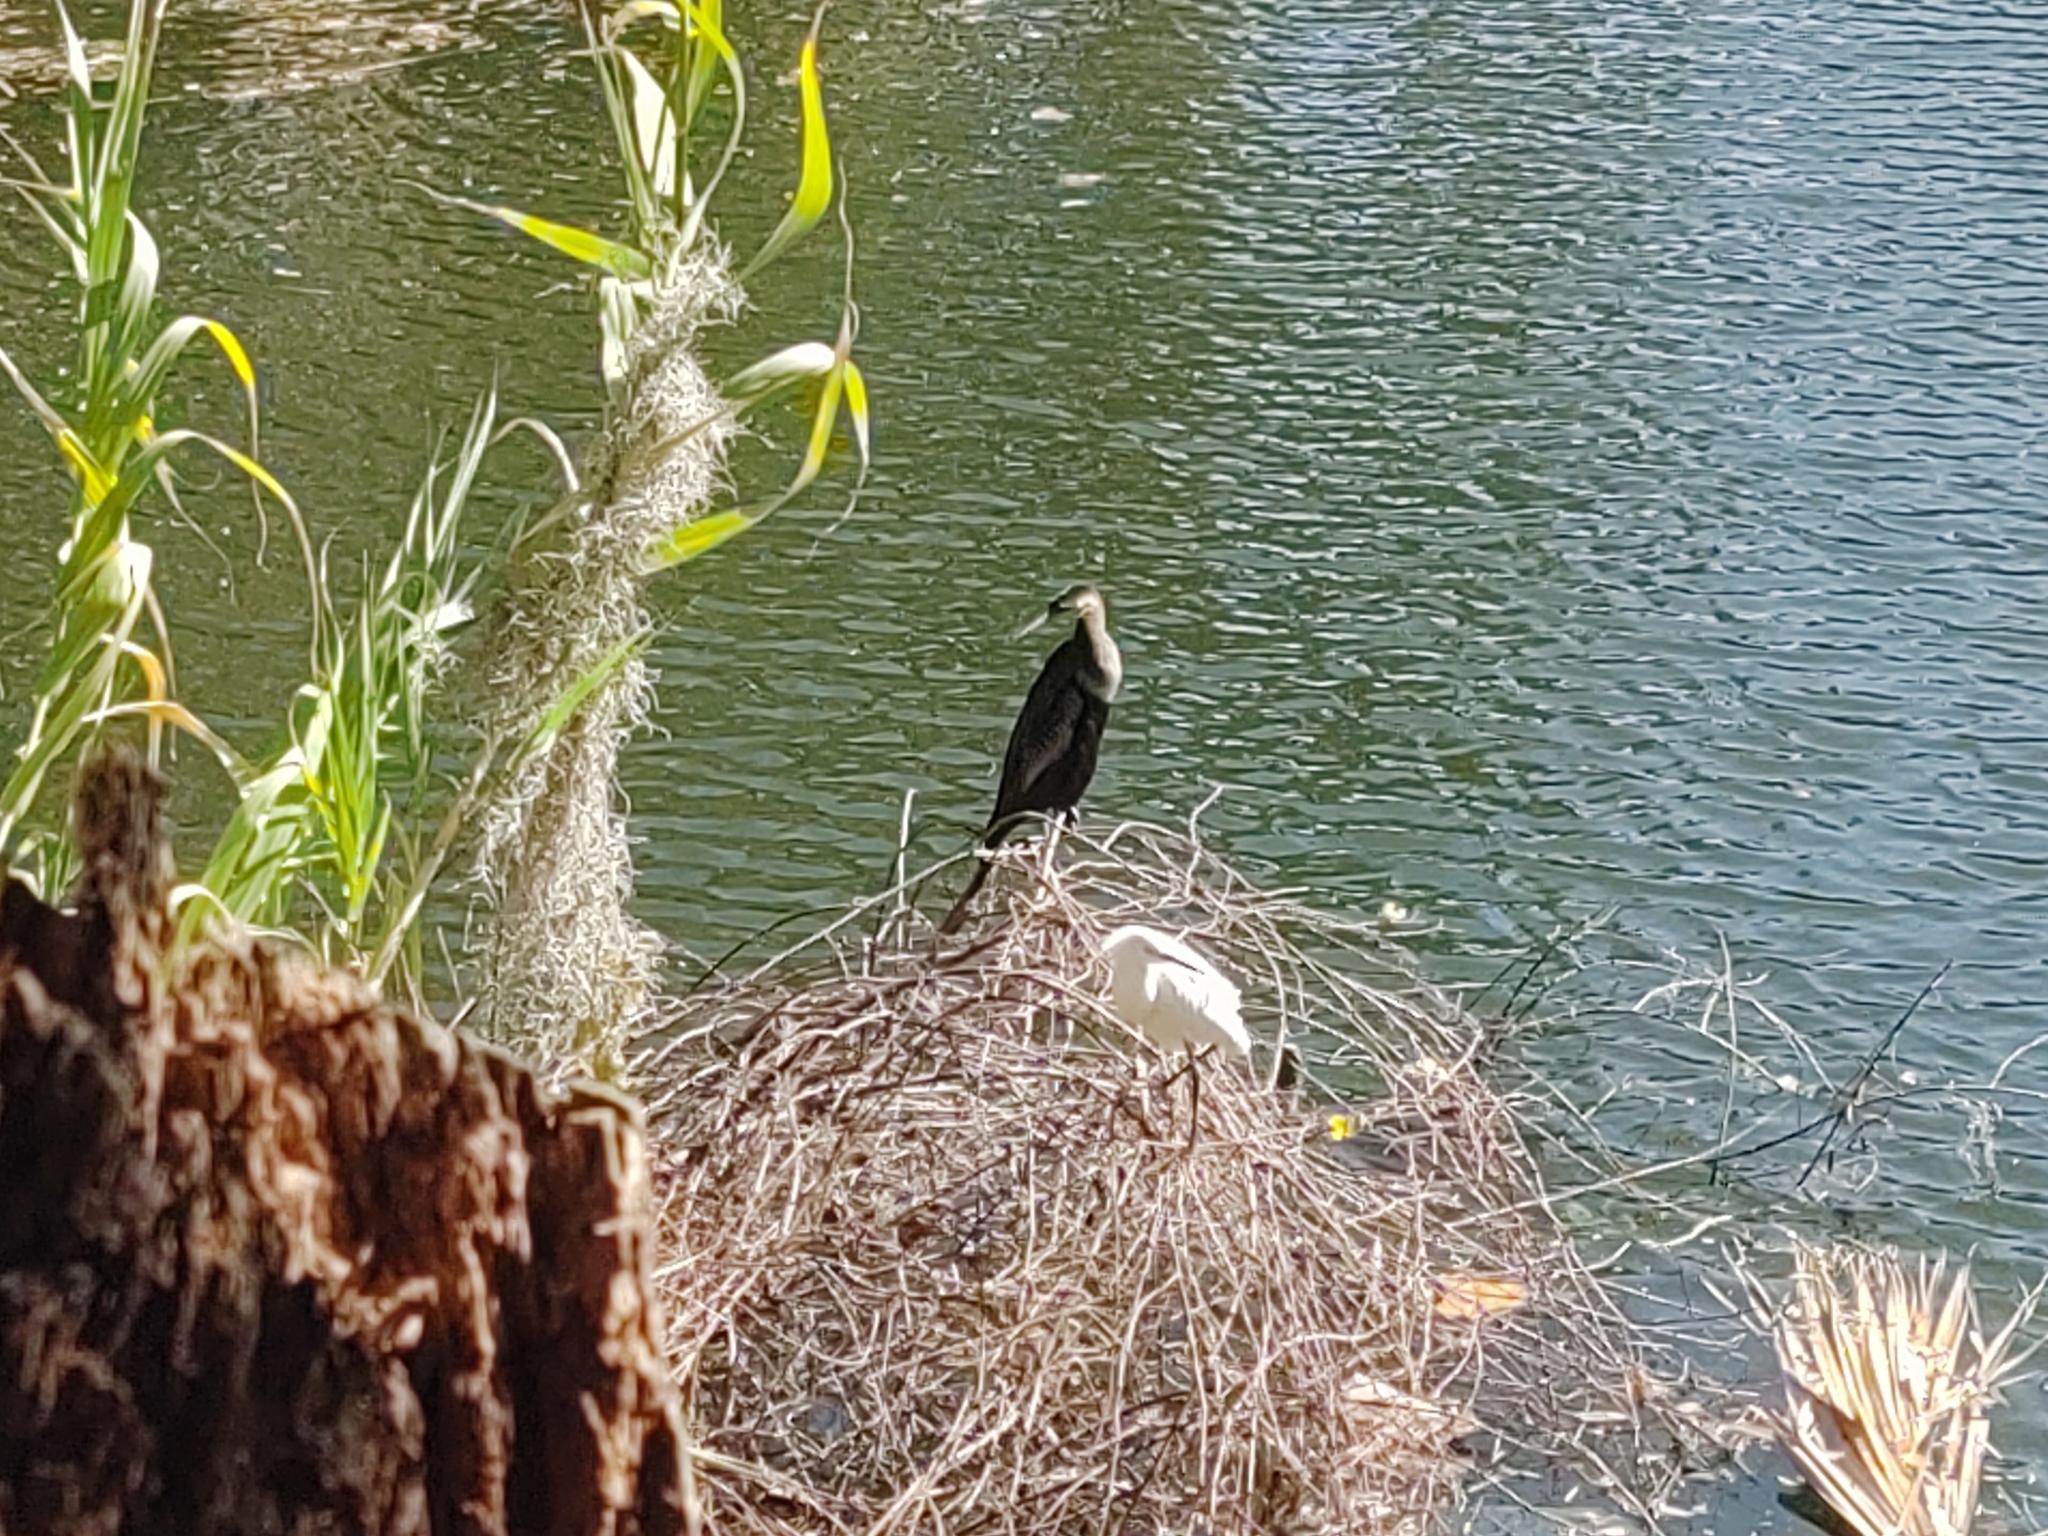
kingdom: Animalia
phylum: Chordata
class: Aves
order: Suliformes
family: Anhingidae
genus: Anhinga
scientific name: Anhinga anhinga
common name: Anhinga
